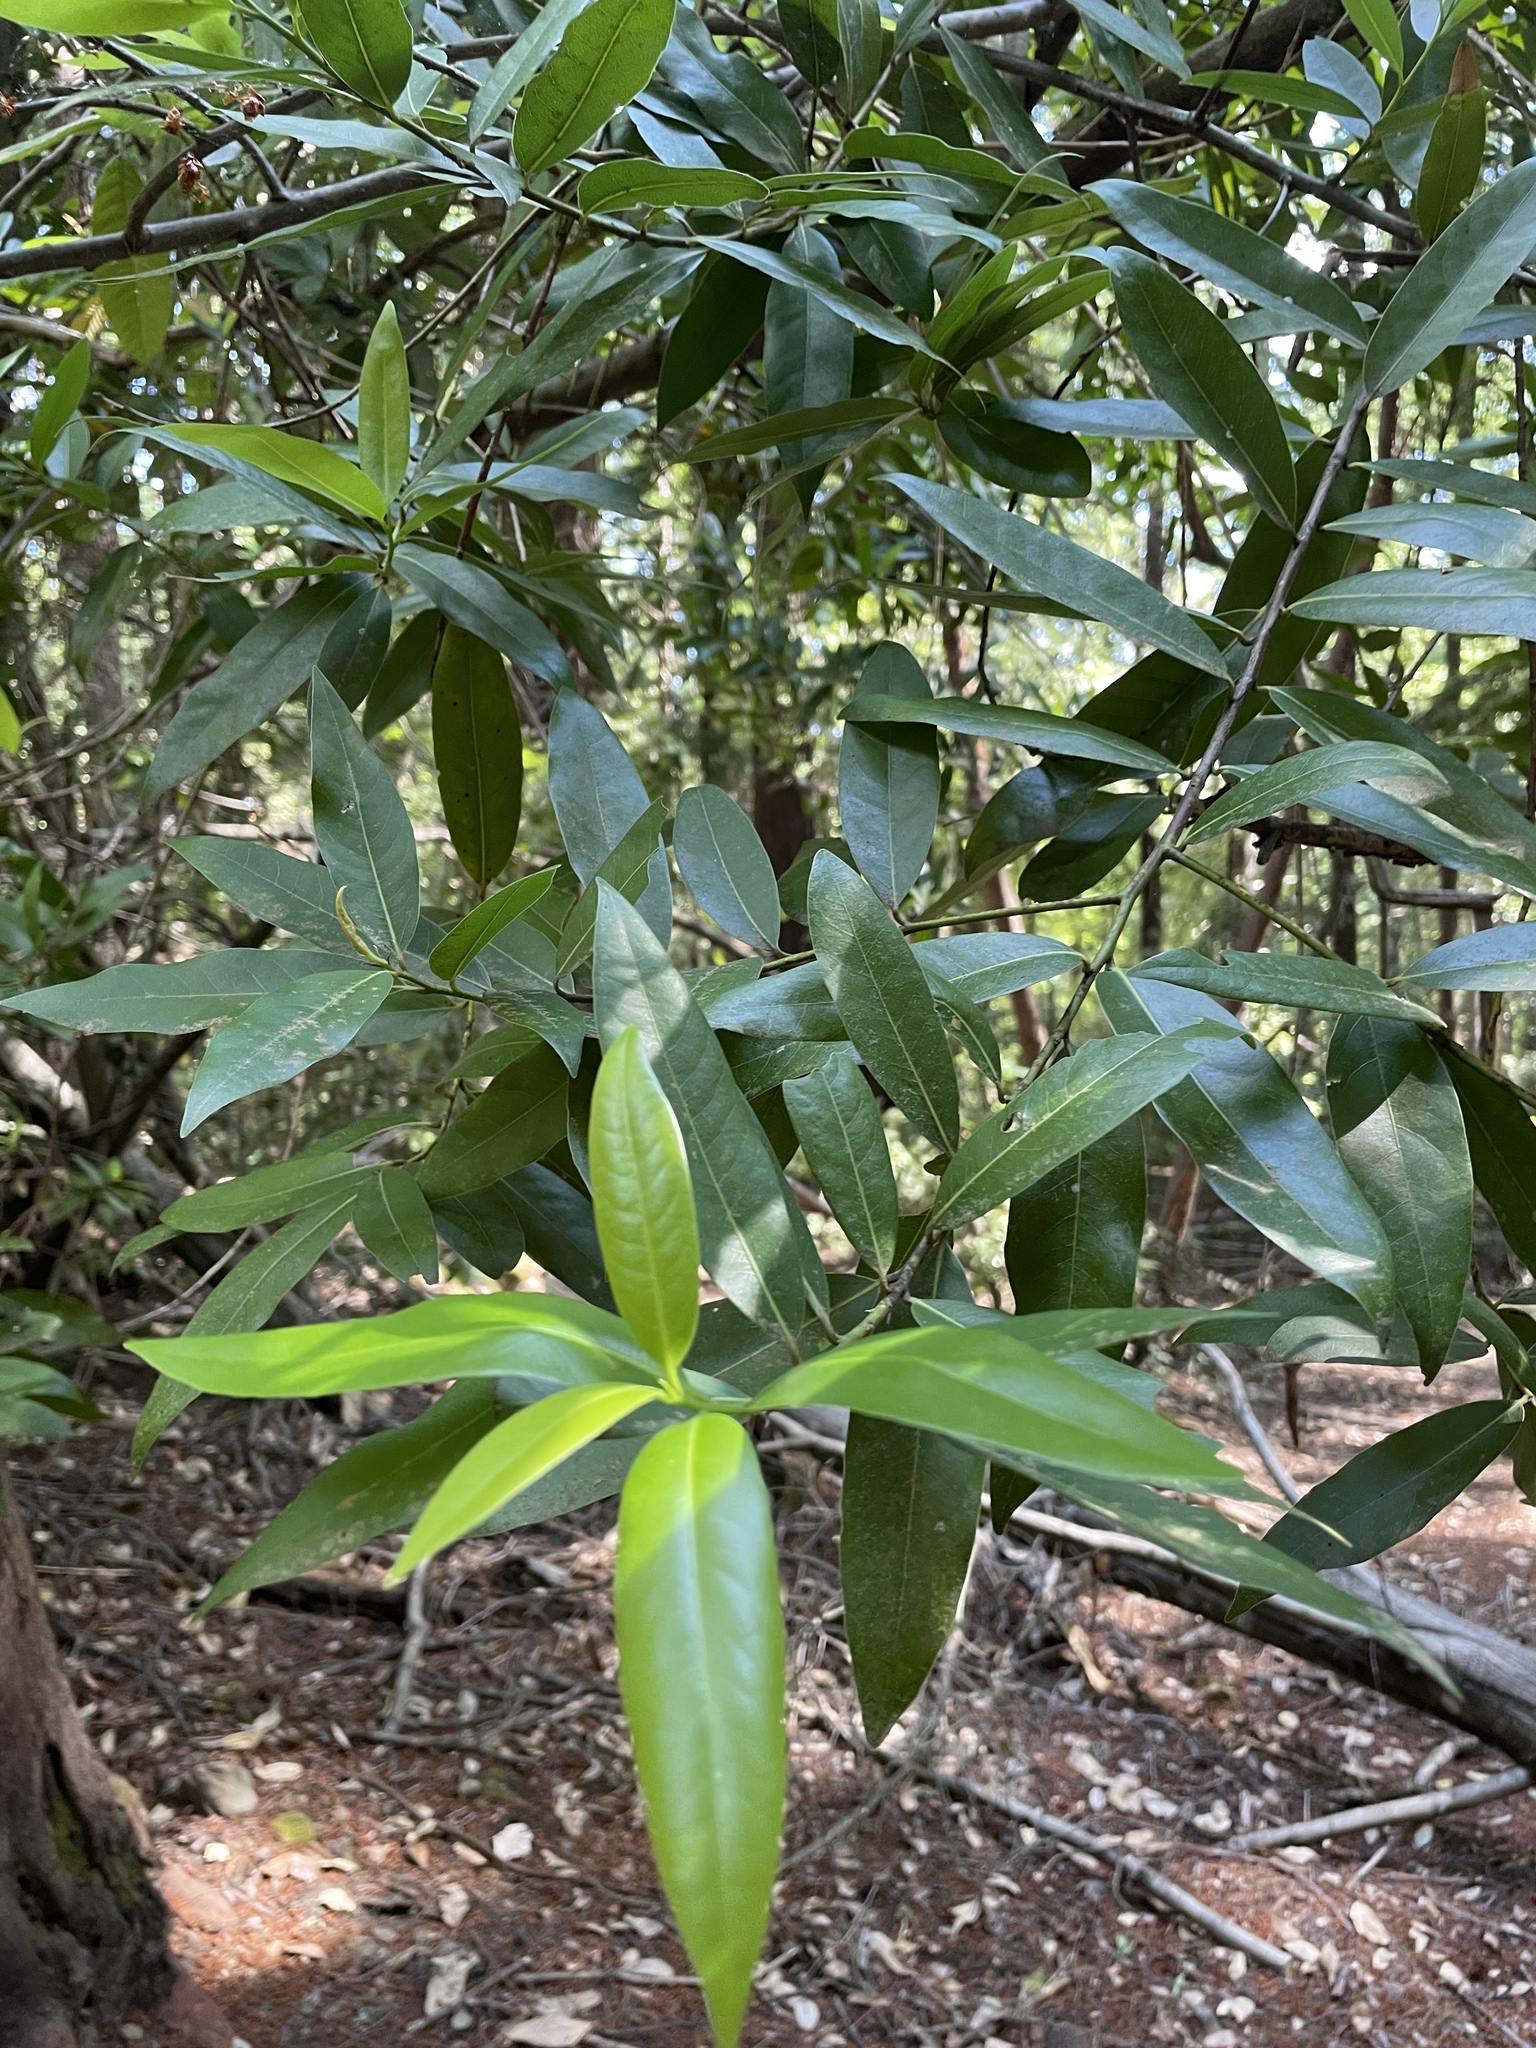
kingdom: Plantae
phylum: Tracheophyta
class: Magnoliopsida
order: Laurales
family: Lauraceae
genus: Umbellularia
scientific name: Umbellularia californica
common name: California bay
